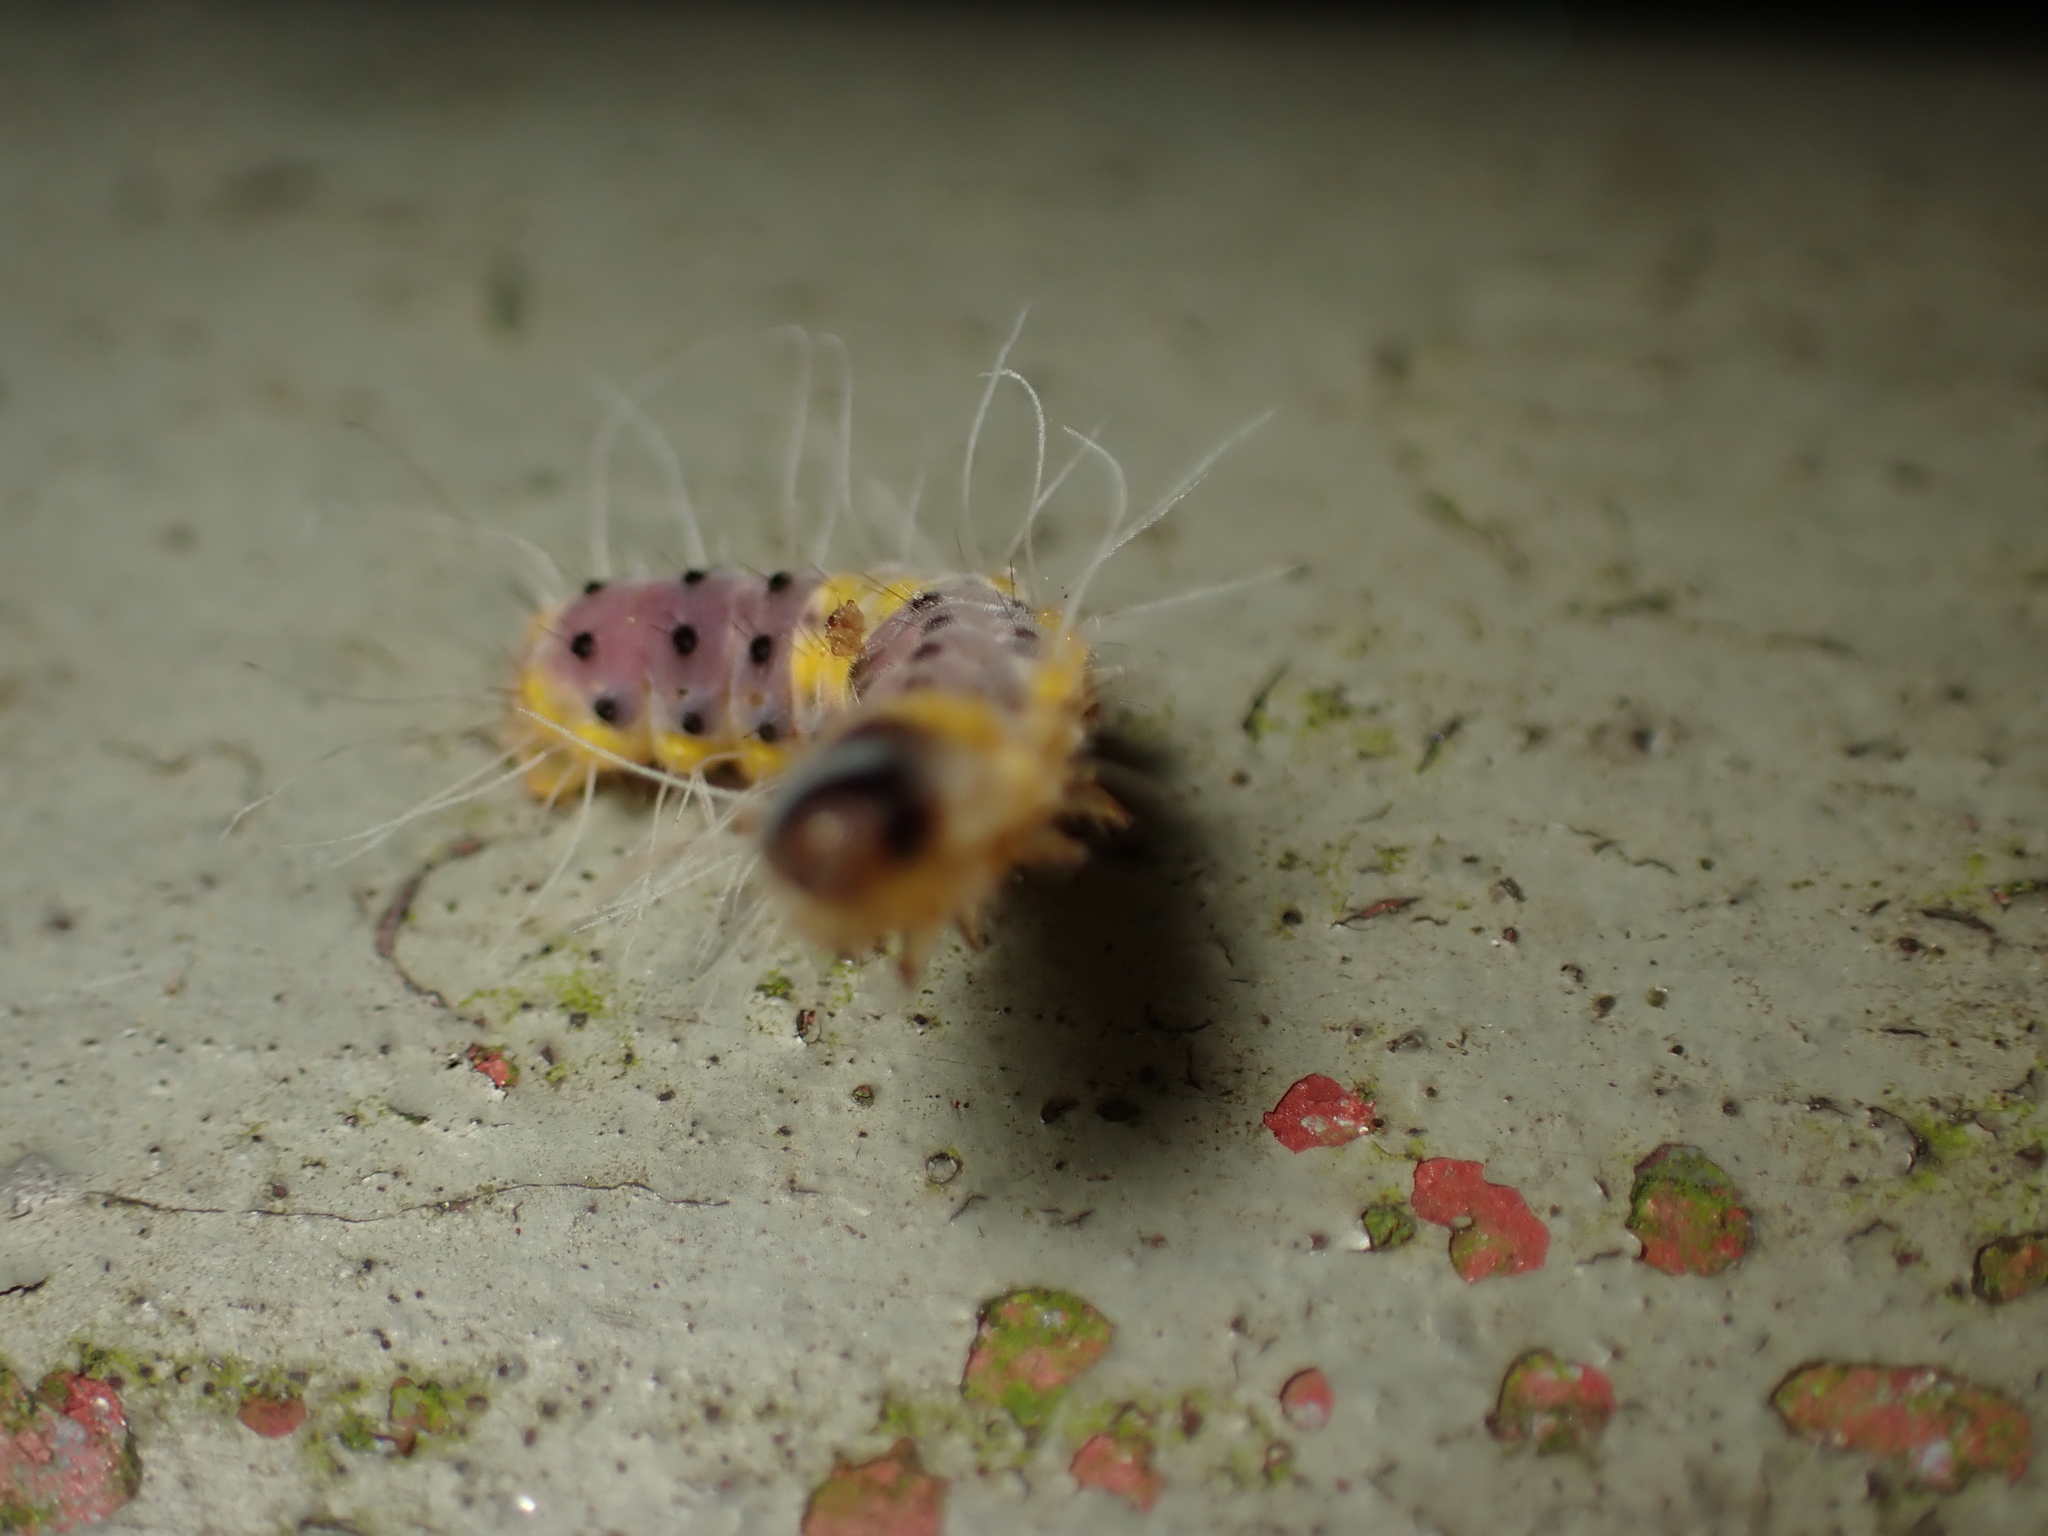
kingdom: Animalia
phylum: Arthropoda
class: Insecta
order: Lepidoptera
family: Zygaenidae
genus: Retina
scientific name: Retina rubrivitta
